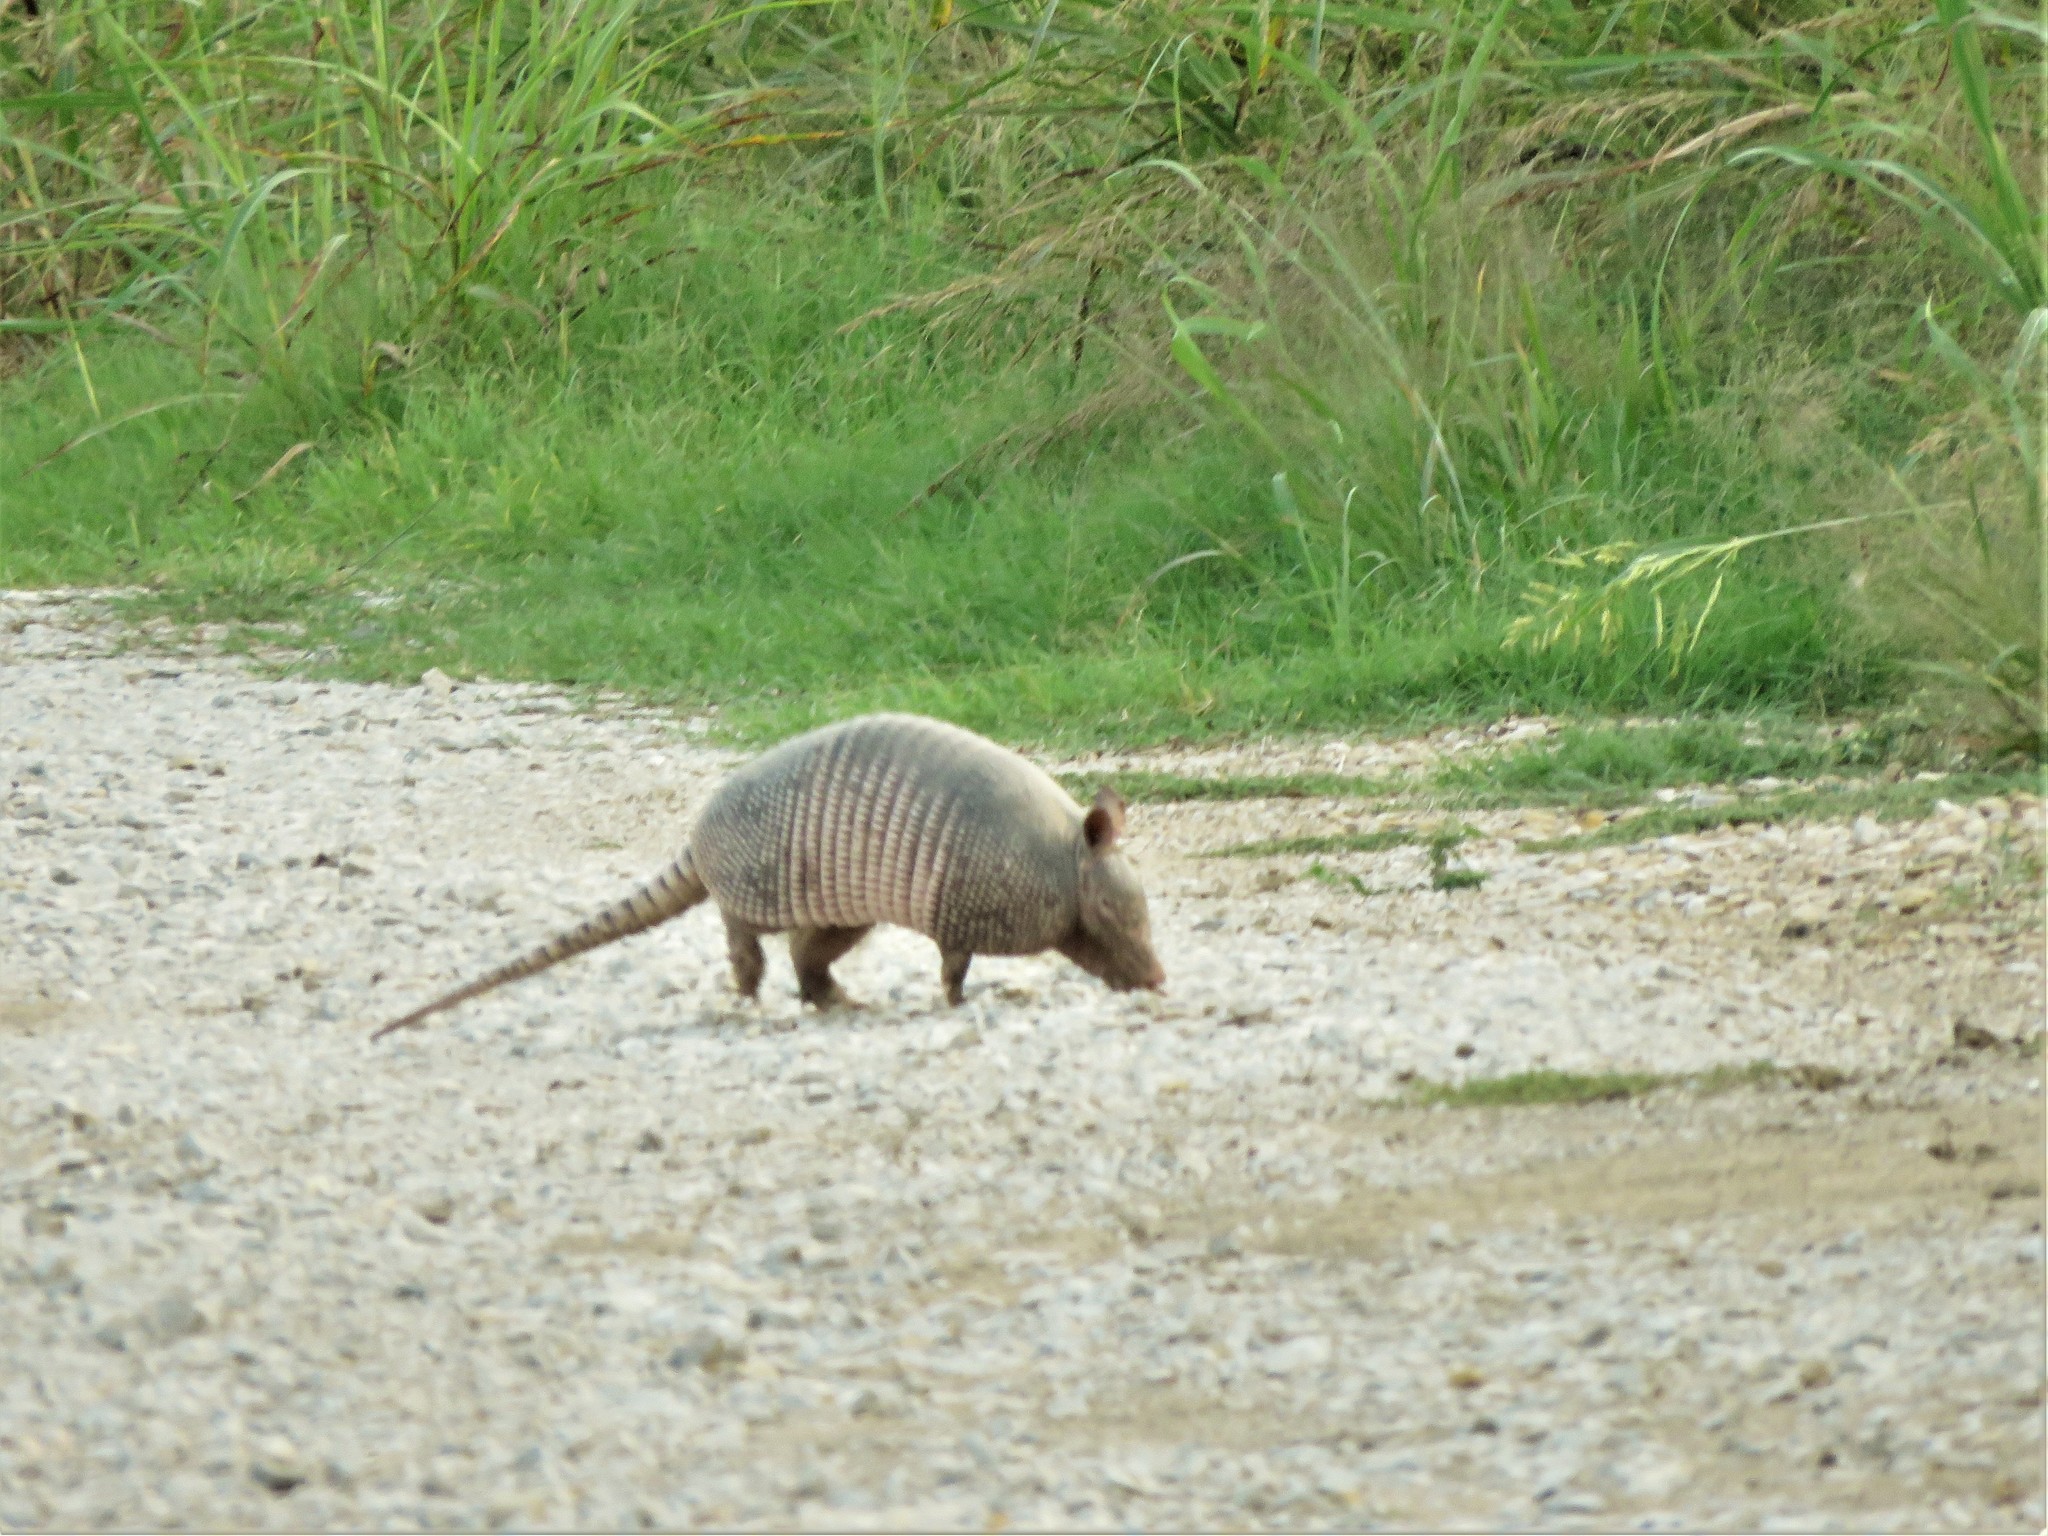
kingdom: Animalia
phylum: Chordata
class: Mammalia
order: Cingulata
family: Dasypodidae
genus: Dasypus
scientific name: Dasypus novemcinctus
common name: Nine-banded armadillo
